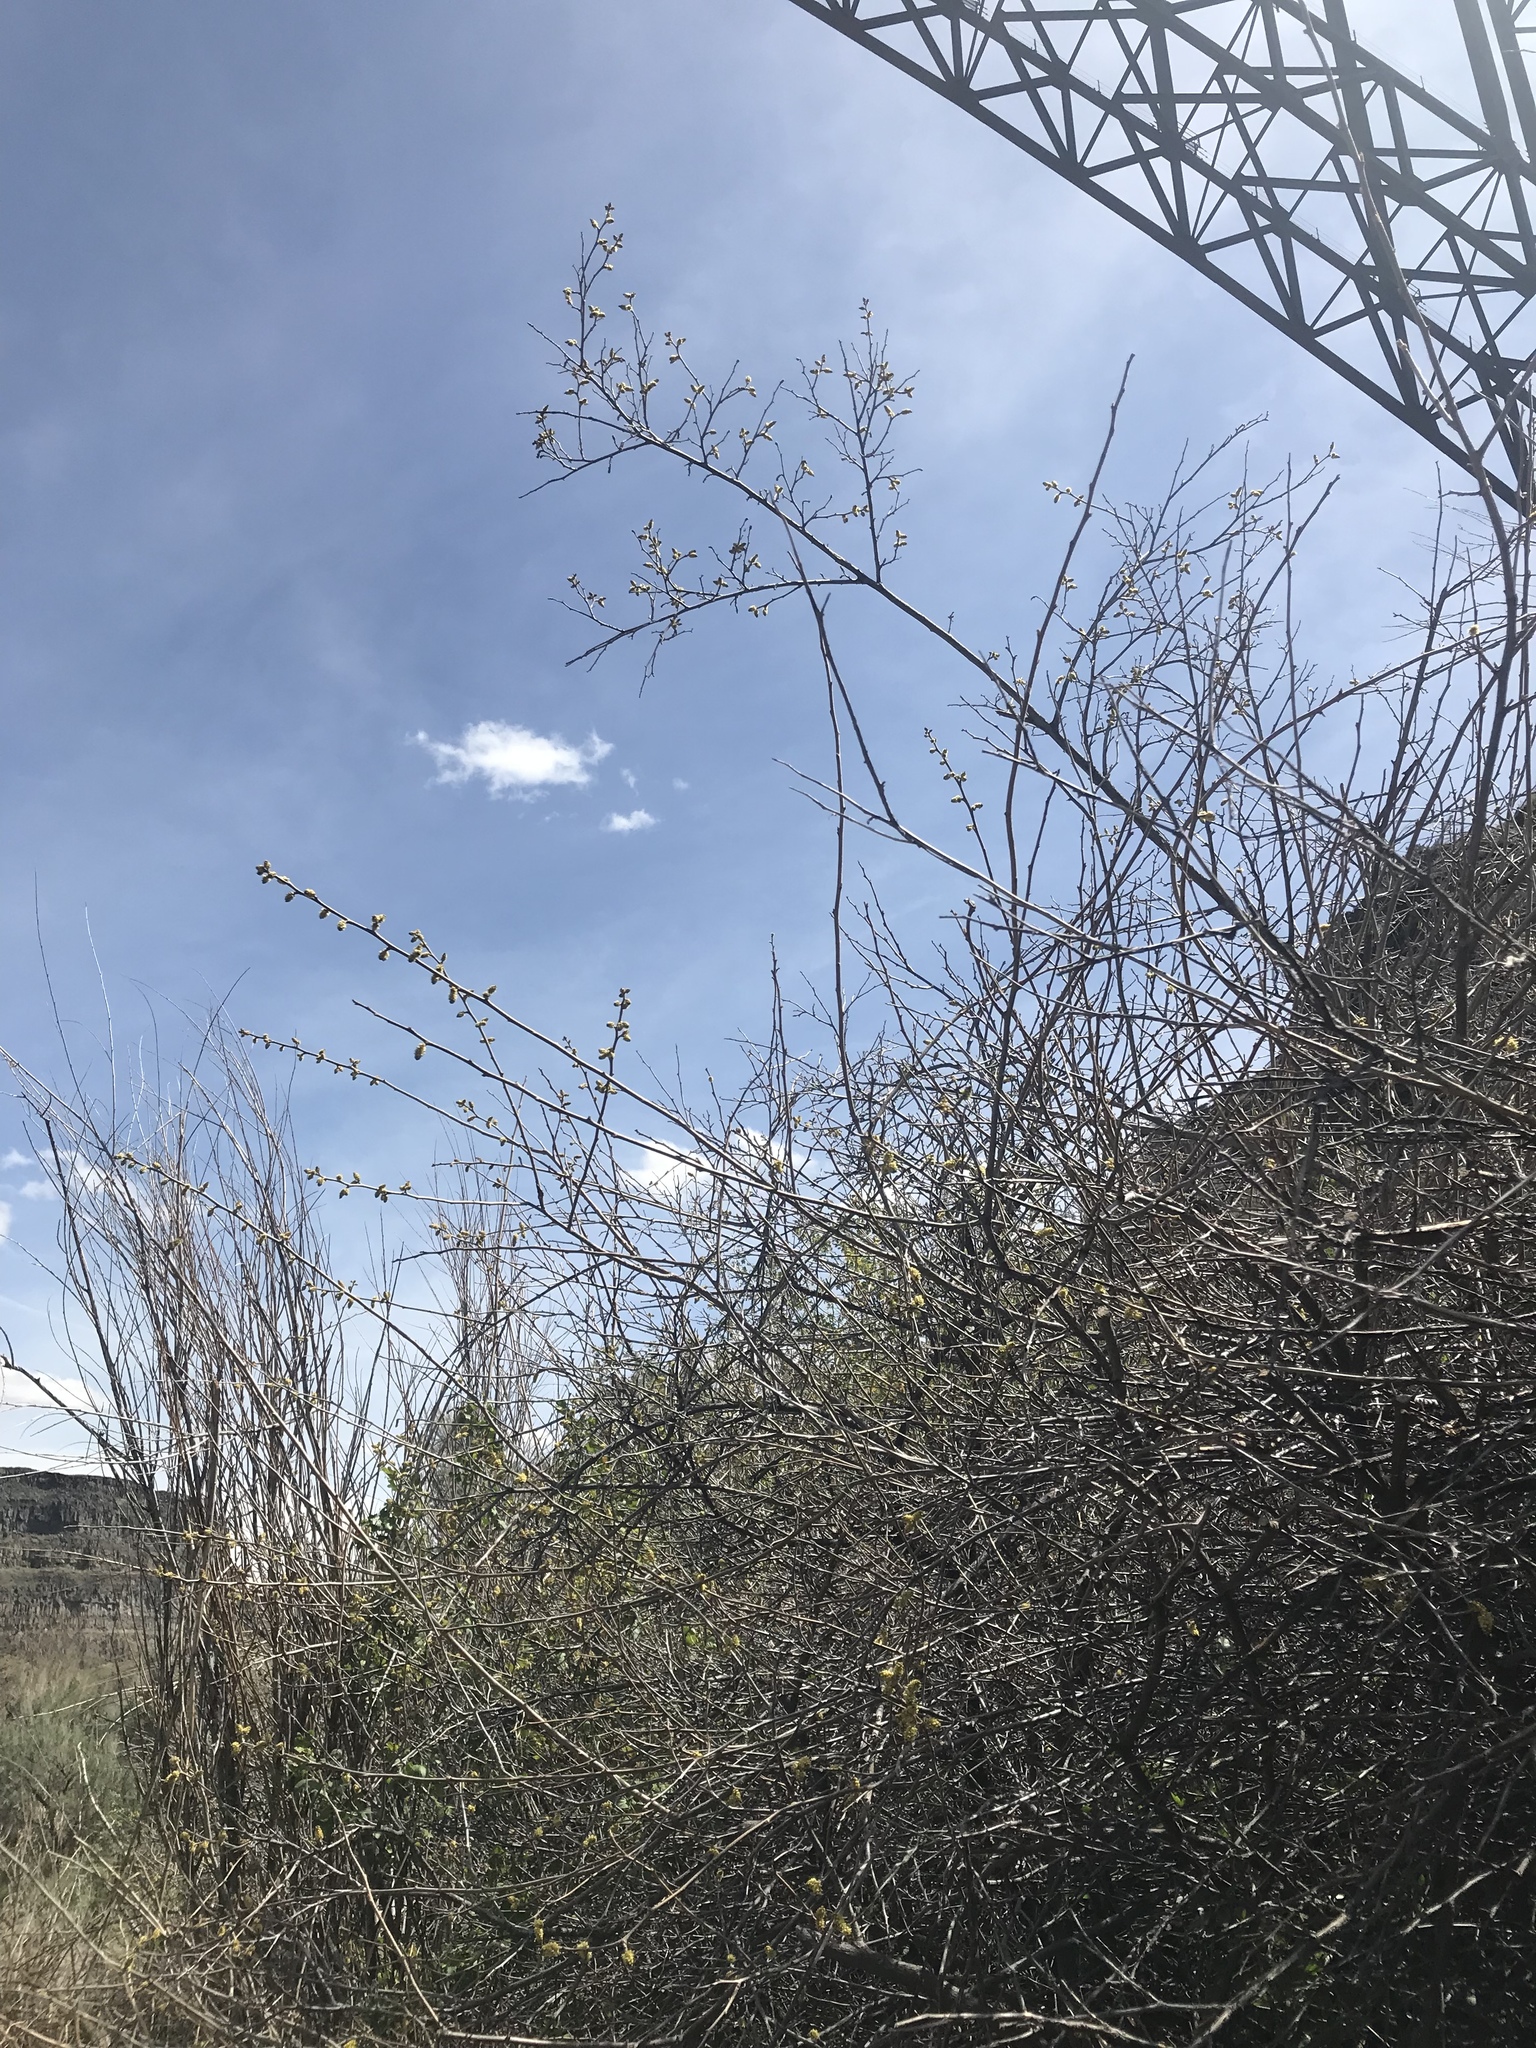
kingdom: Plantae
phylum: Tracheophyta
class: Magnoliopsida
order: Sapindales
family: Anacardiaceae
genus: Rhus
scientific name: Rhus aromatica
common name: Aromatic sumac
